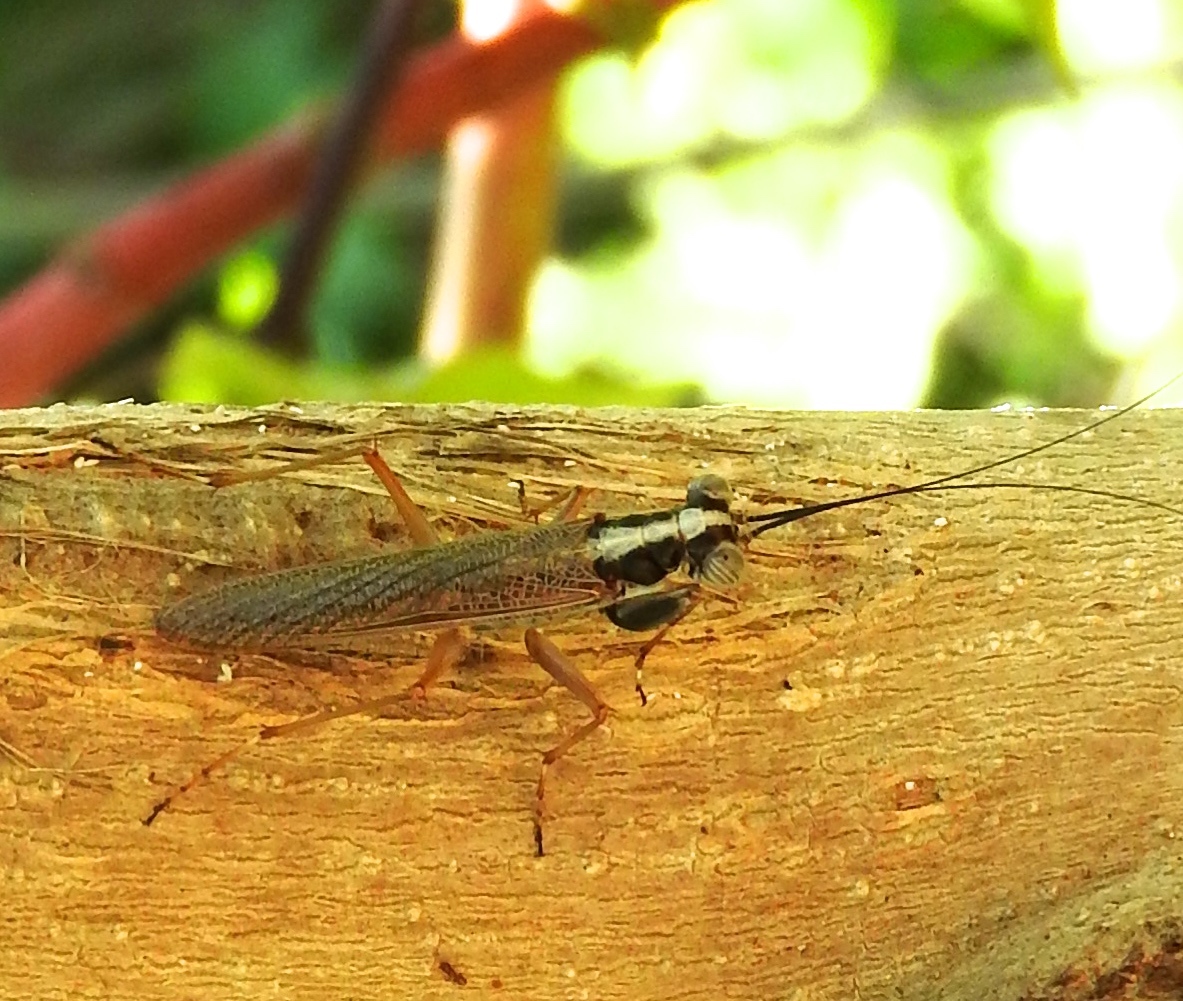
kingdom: Animalia
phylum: Arthropoda
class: Insecta
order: Mantodea
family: Mantoididae
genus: Mantoida
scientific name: Mantoida maya
